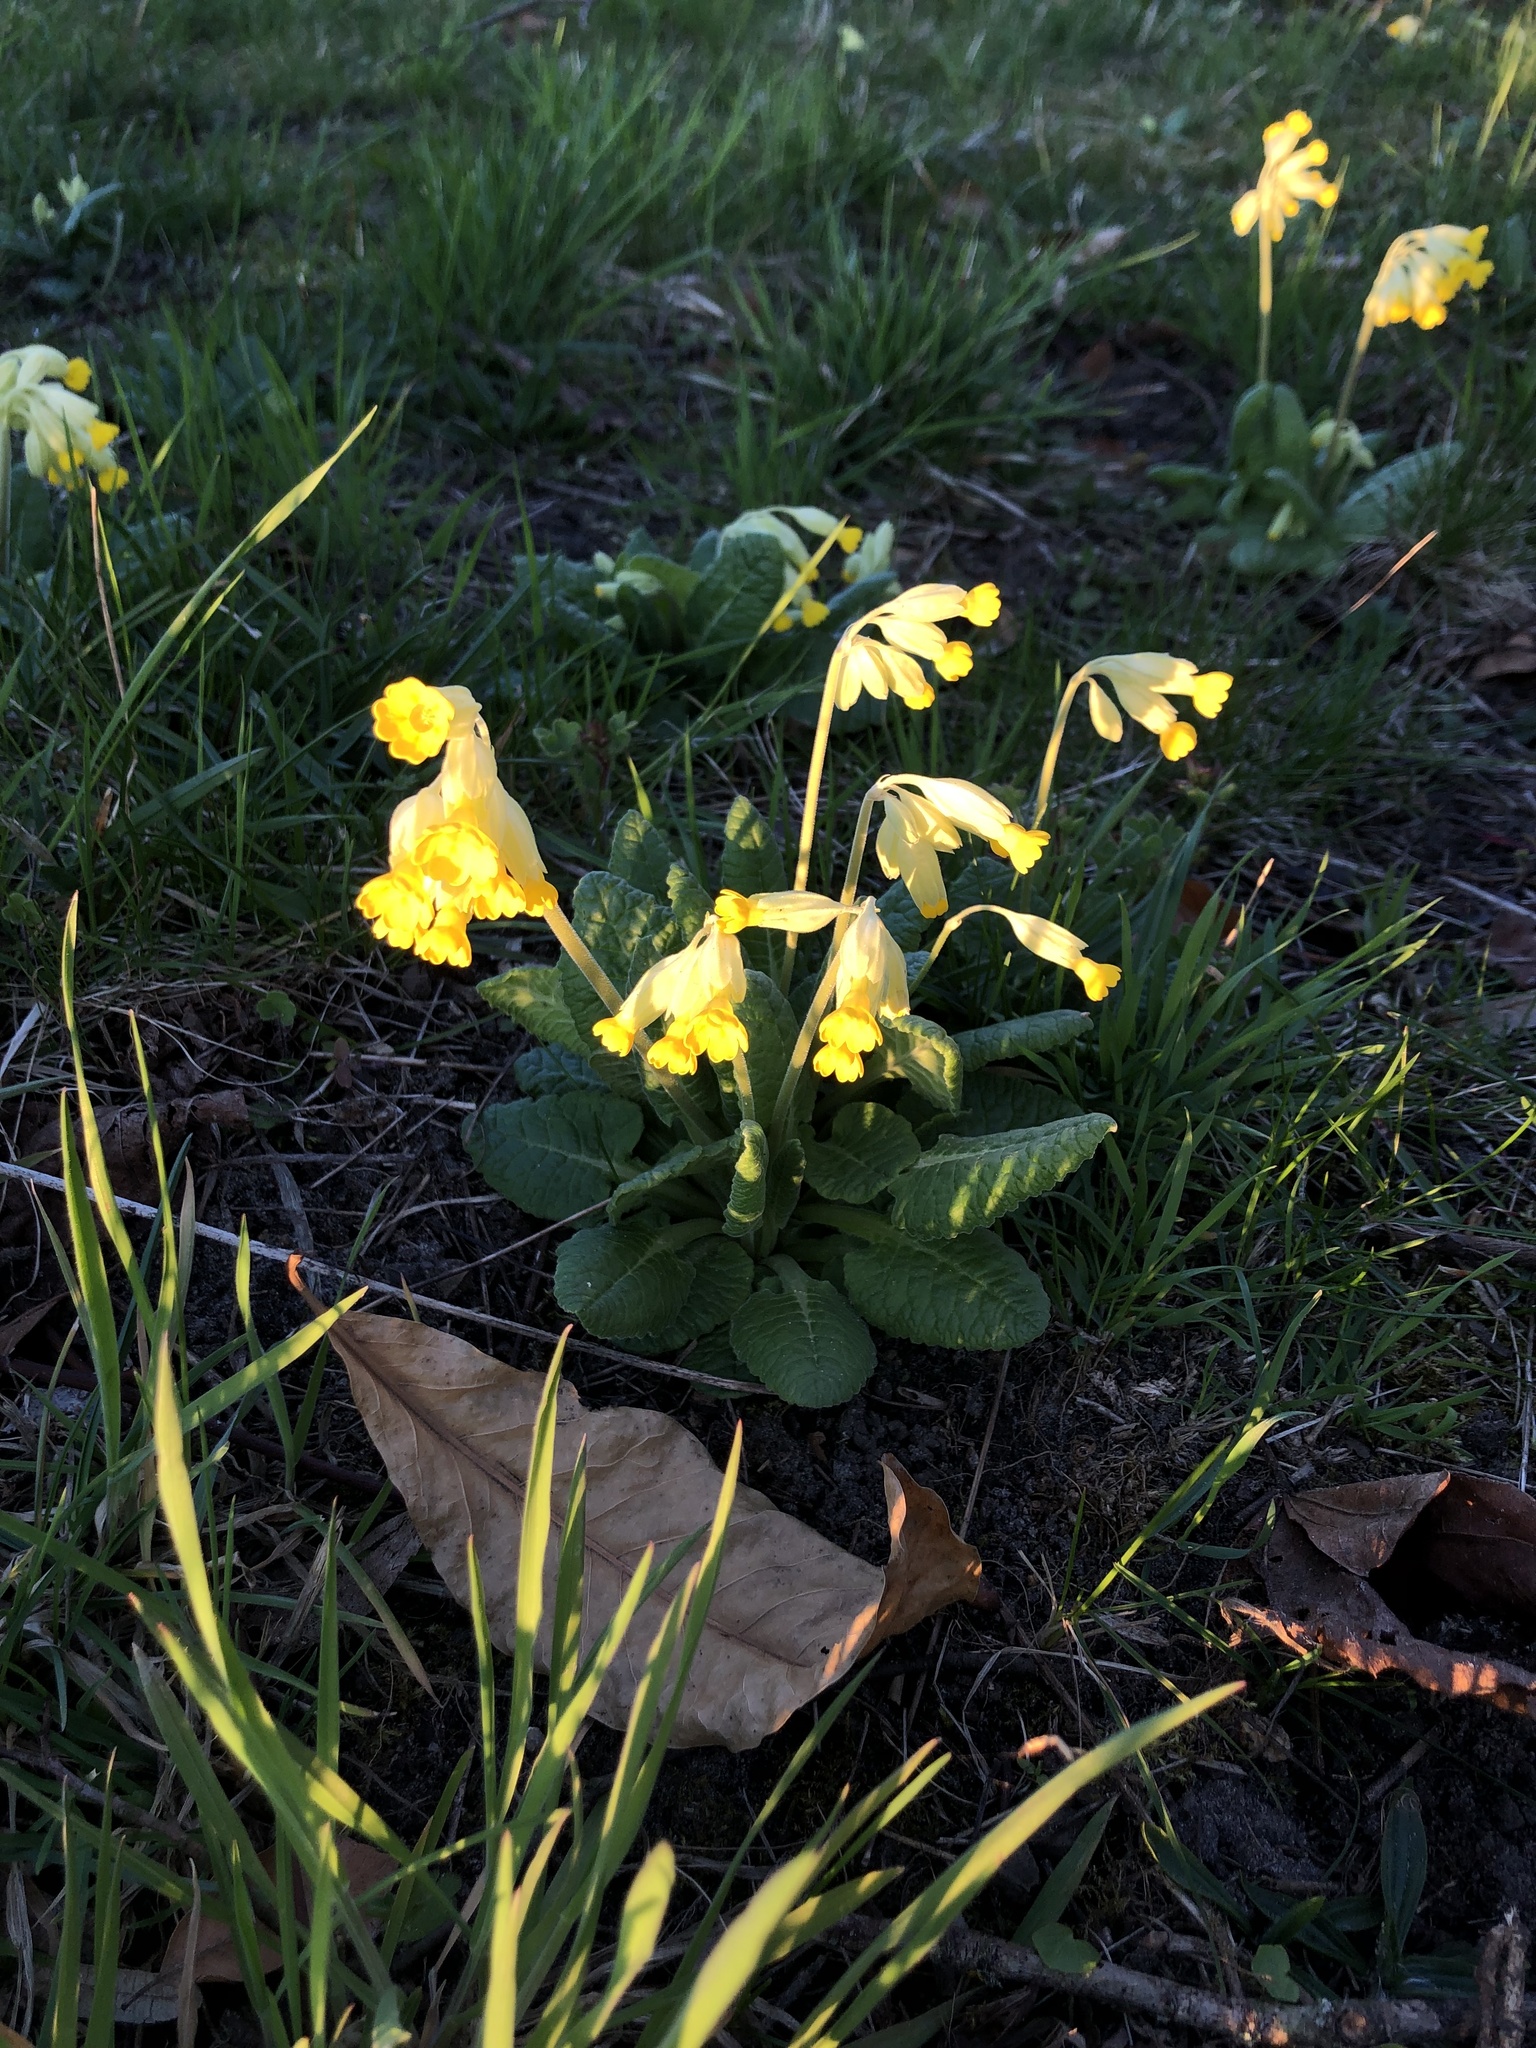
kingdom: Plantae
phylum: Tracheophyta
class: Magnoliopsida
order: Ericales
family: Primulaceae
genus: Primula
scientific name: Primula veris
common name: Cowslip
